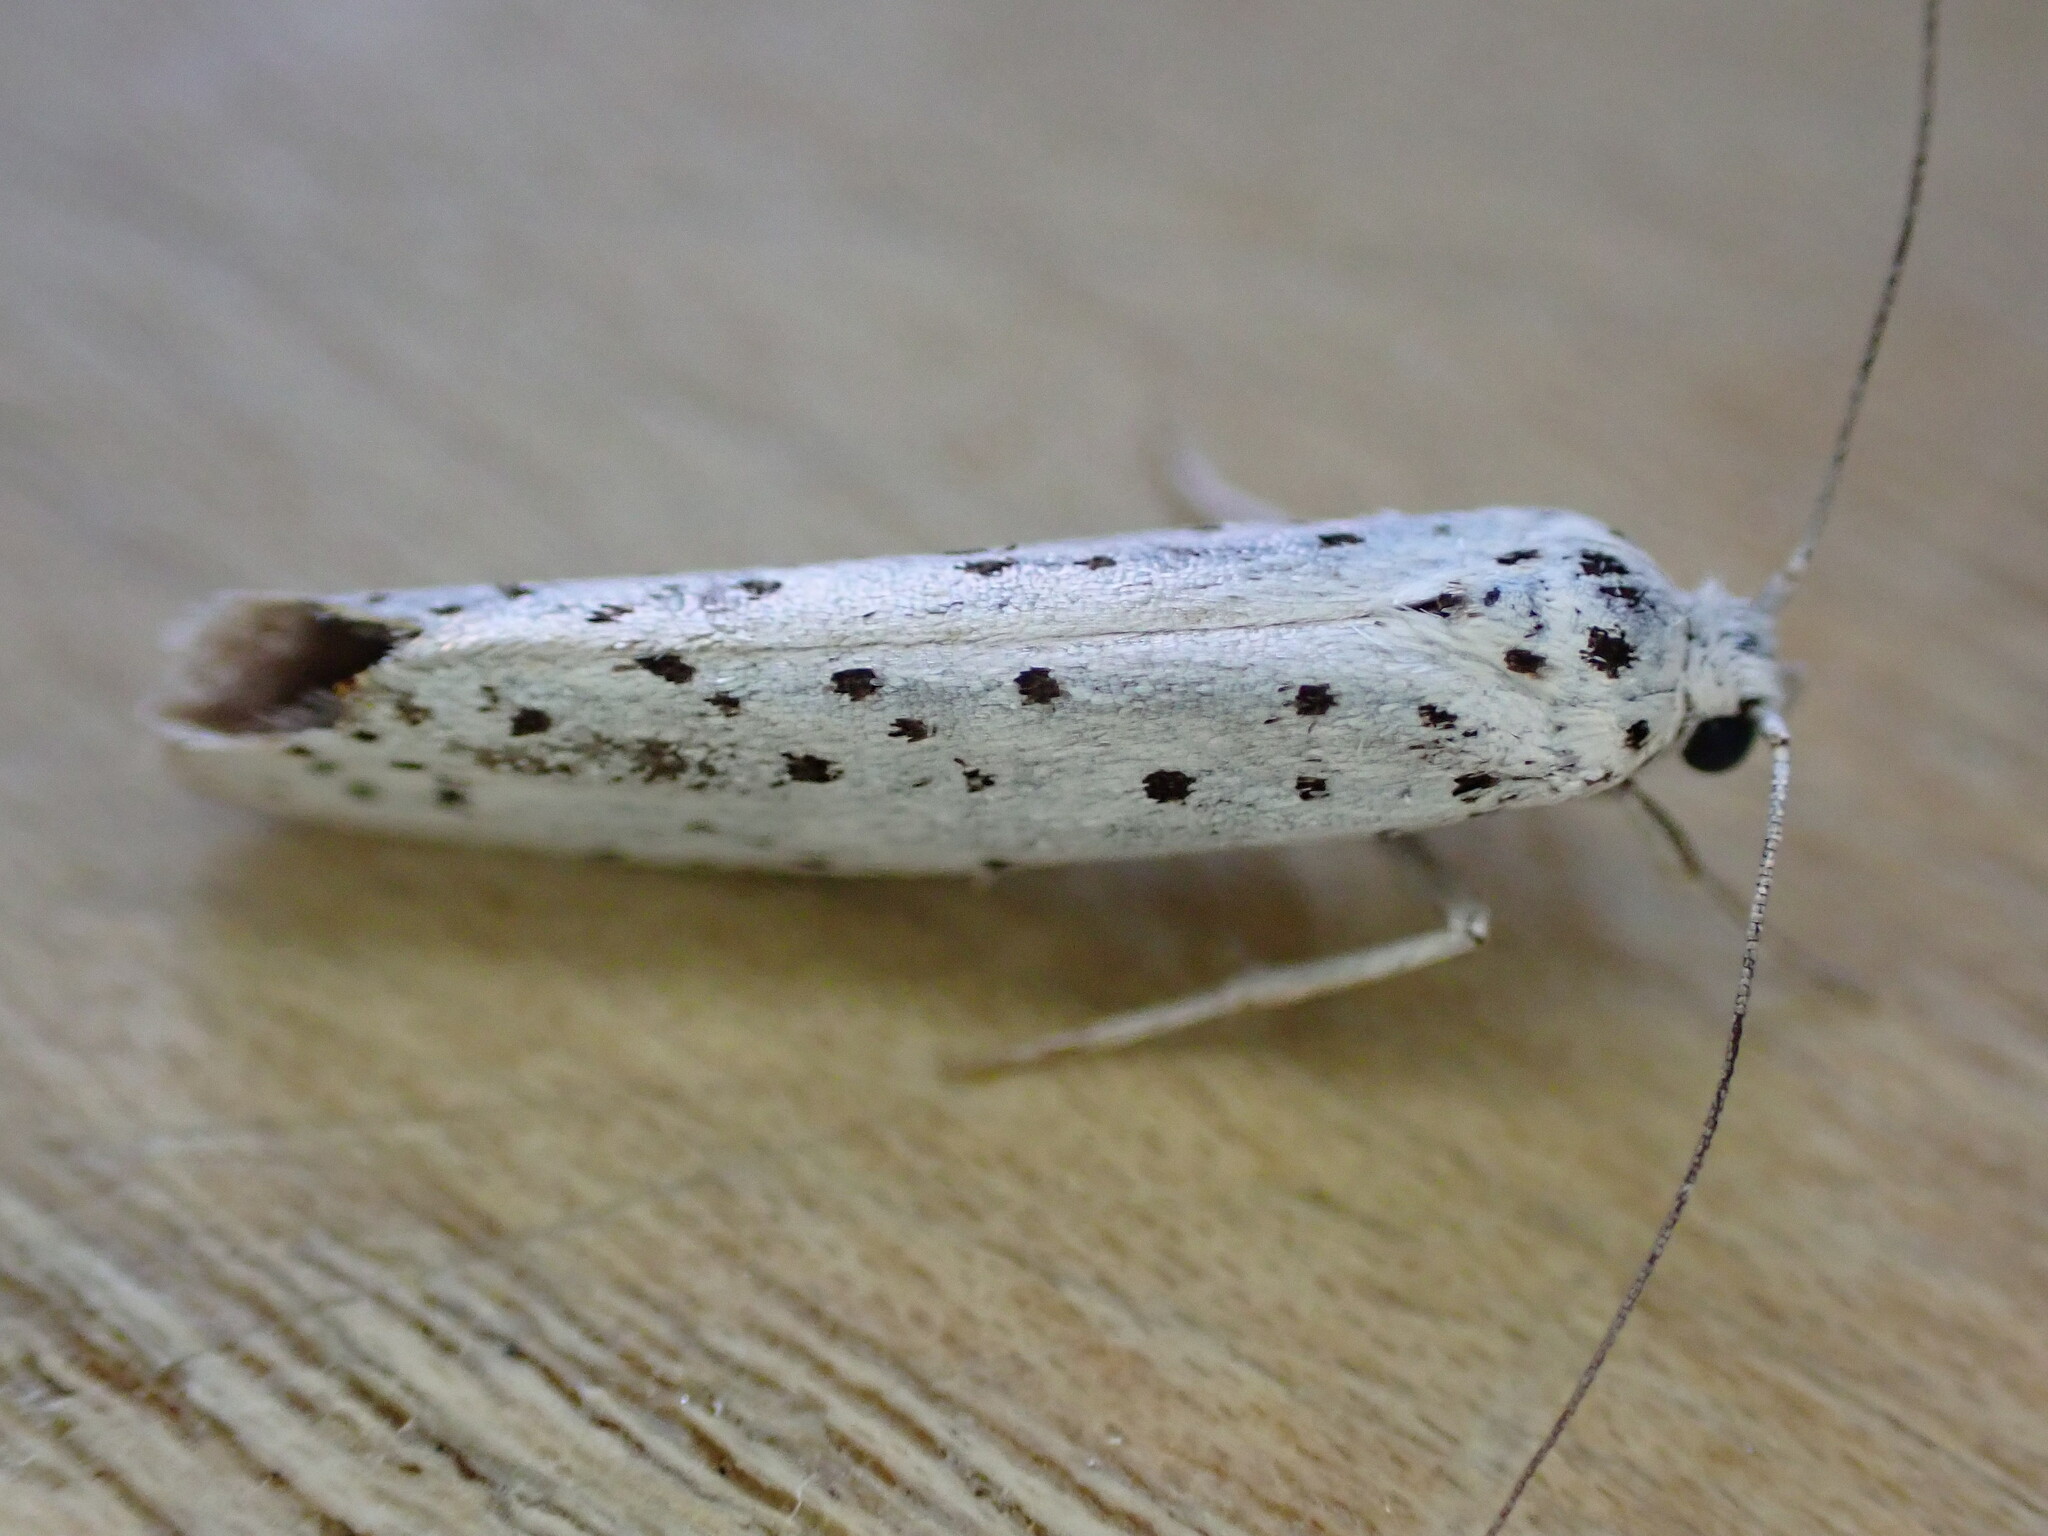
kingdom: Animalia
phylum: Arthropoda
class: Insecta
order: Lepidoptera
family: Yponomeutidae
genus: Yponomeuta
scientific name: Yponomeuta
